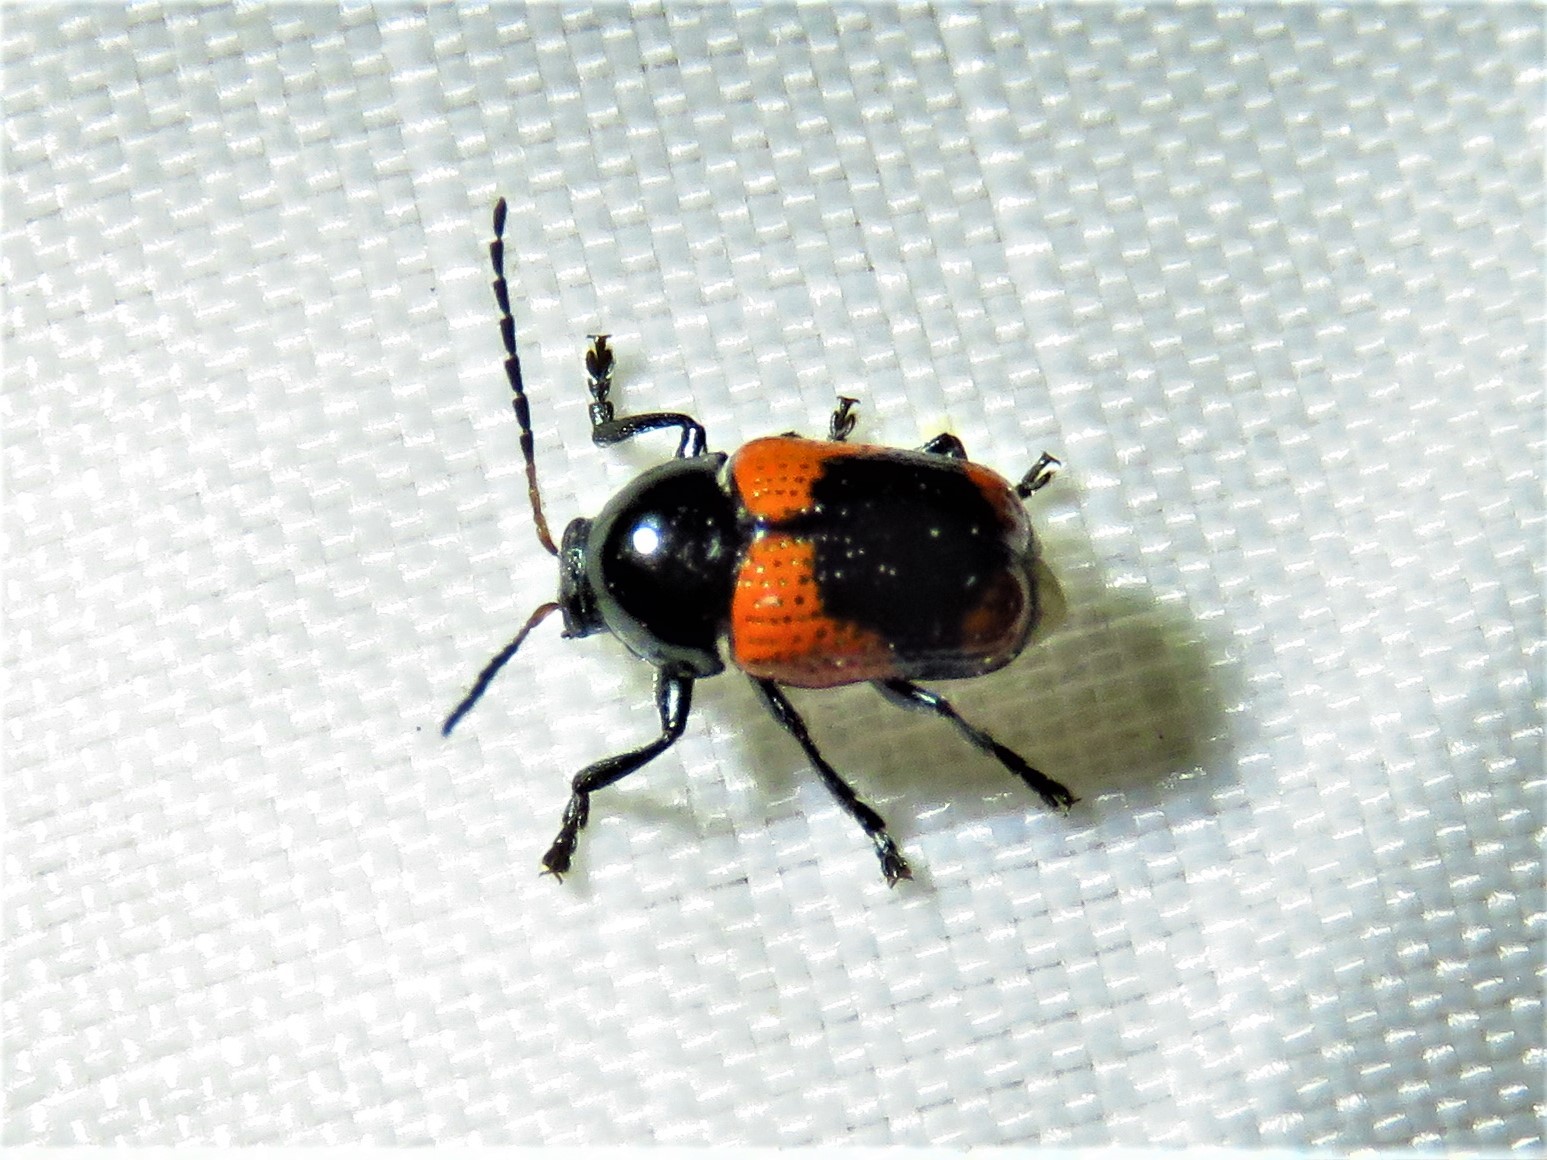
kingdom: Animalia
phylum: Arthropoda
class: Insecta
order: Coleoptera
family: Chrysomelidae
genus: Cryptocephalus
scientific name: Cryptocephalus notatus
